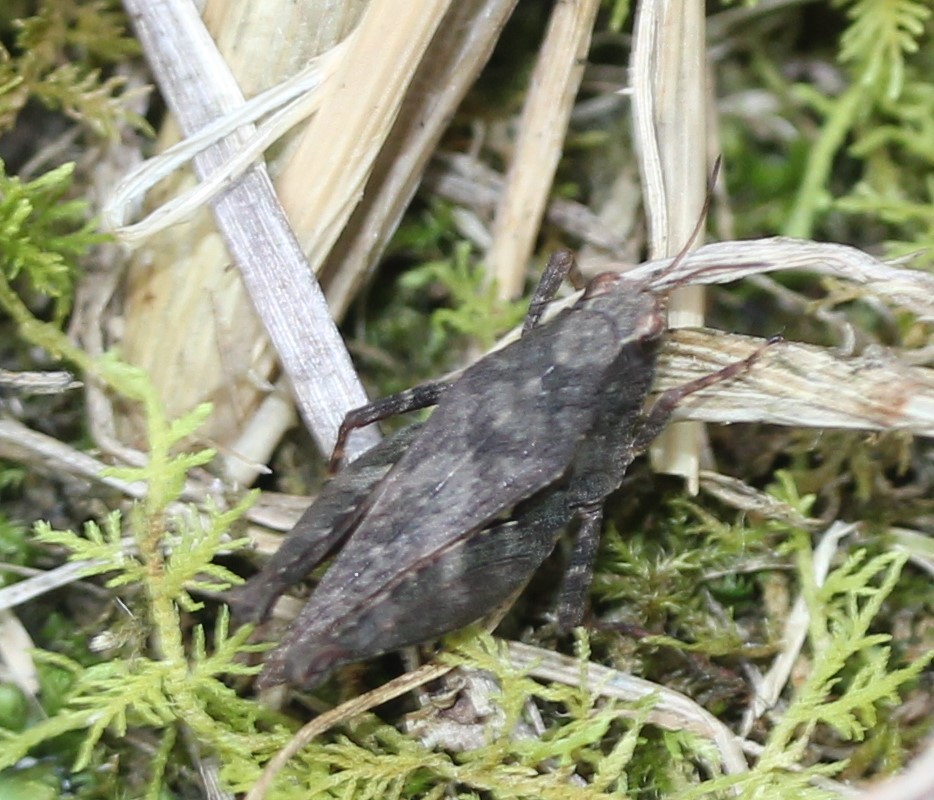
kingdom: Animalia
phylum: Arthropoda
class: Insecta
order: Orthoptera
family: Tetrigidae
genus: Tettigidea
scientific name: Tettigidea laterale
